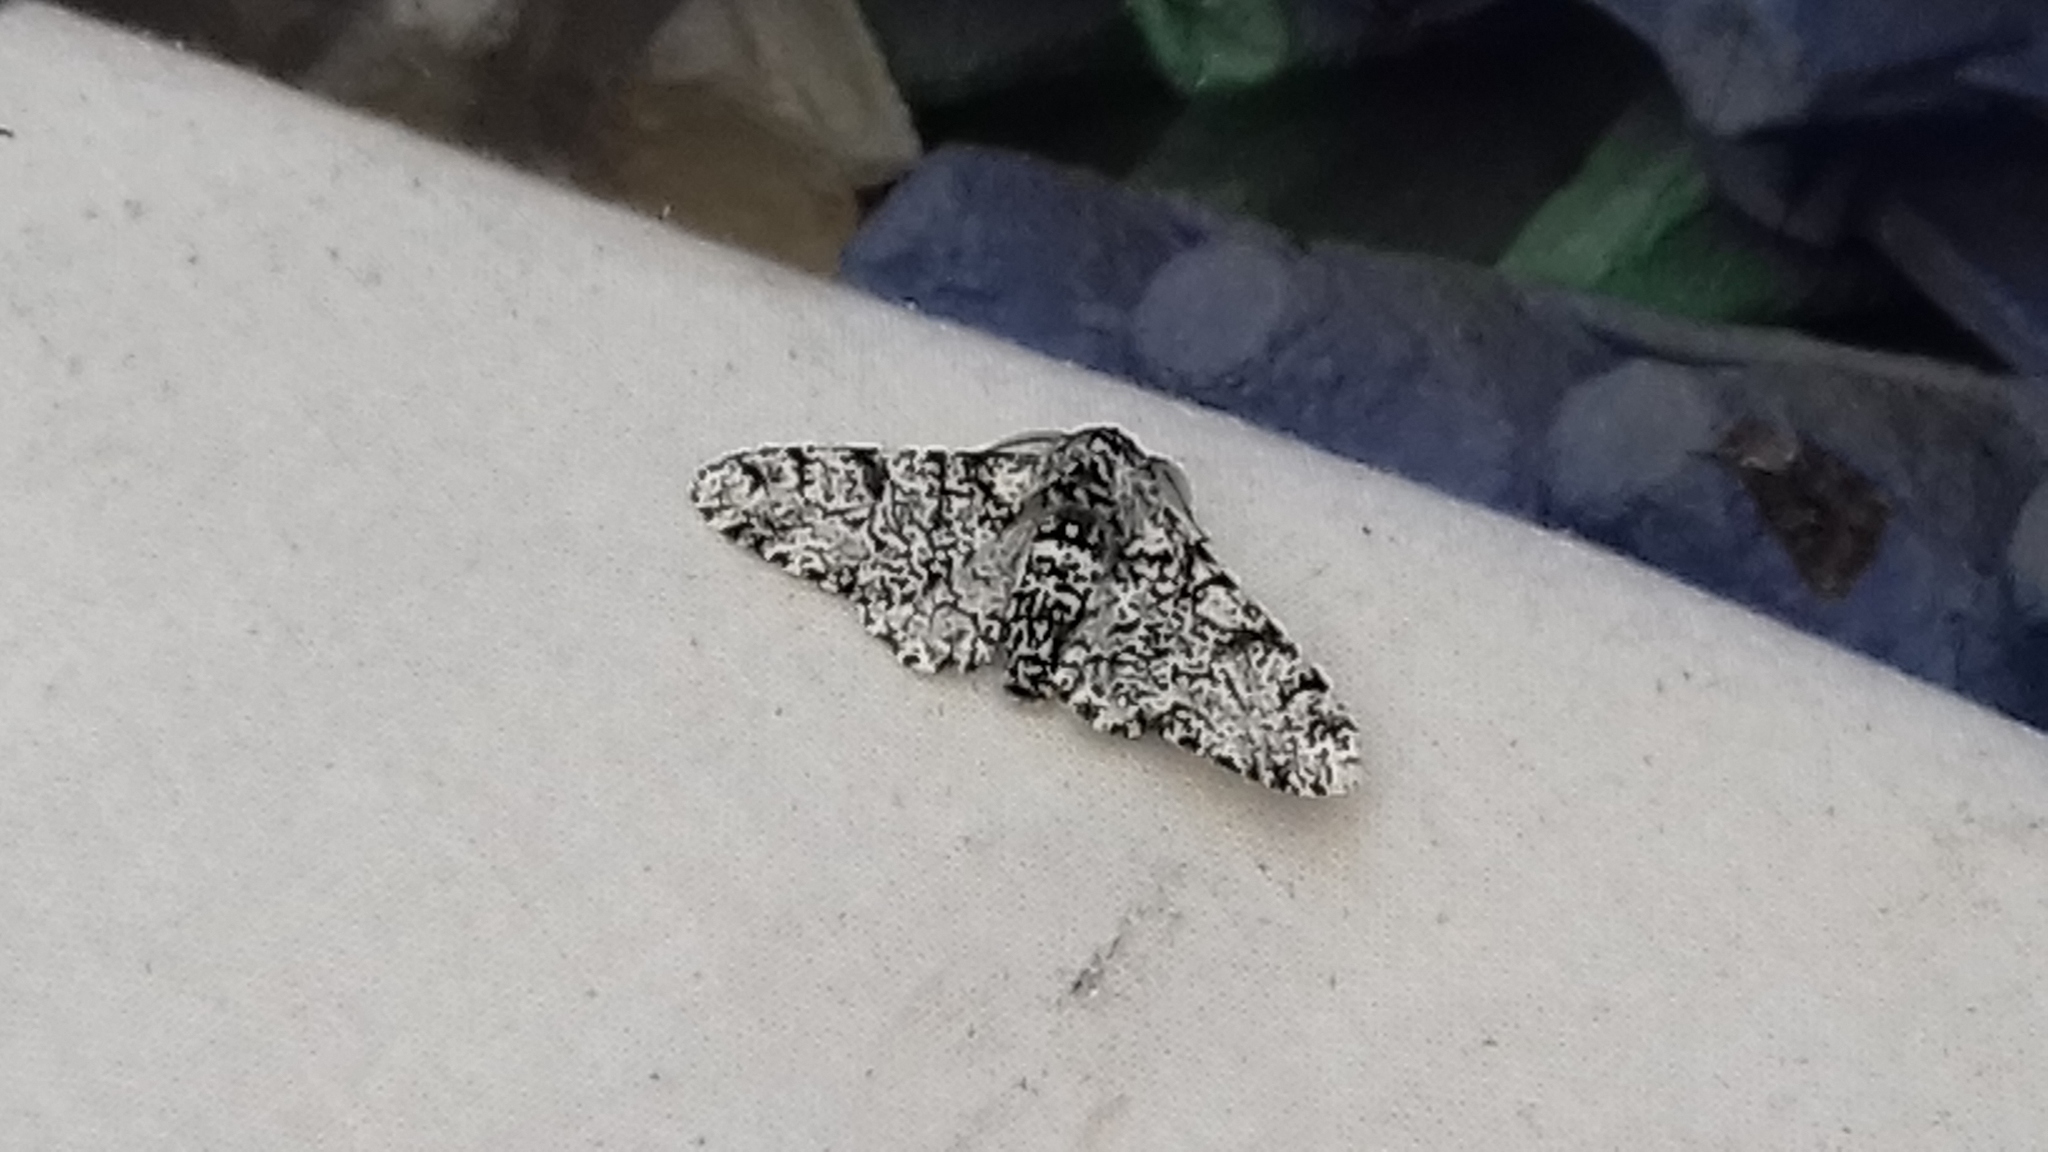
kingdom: Animalia
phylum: Arthropoda
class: Insecta
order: Lepidoptera
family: Geometridae
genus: Biston
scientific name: Biston betularia
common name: Peppered moth
